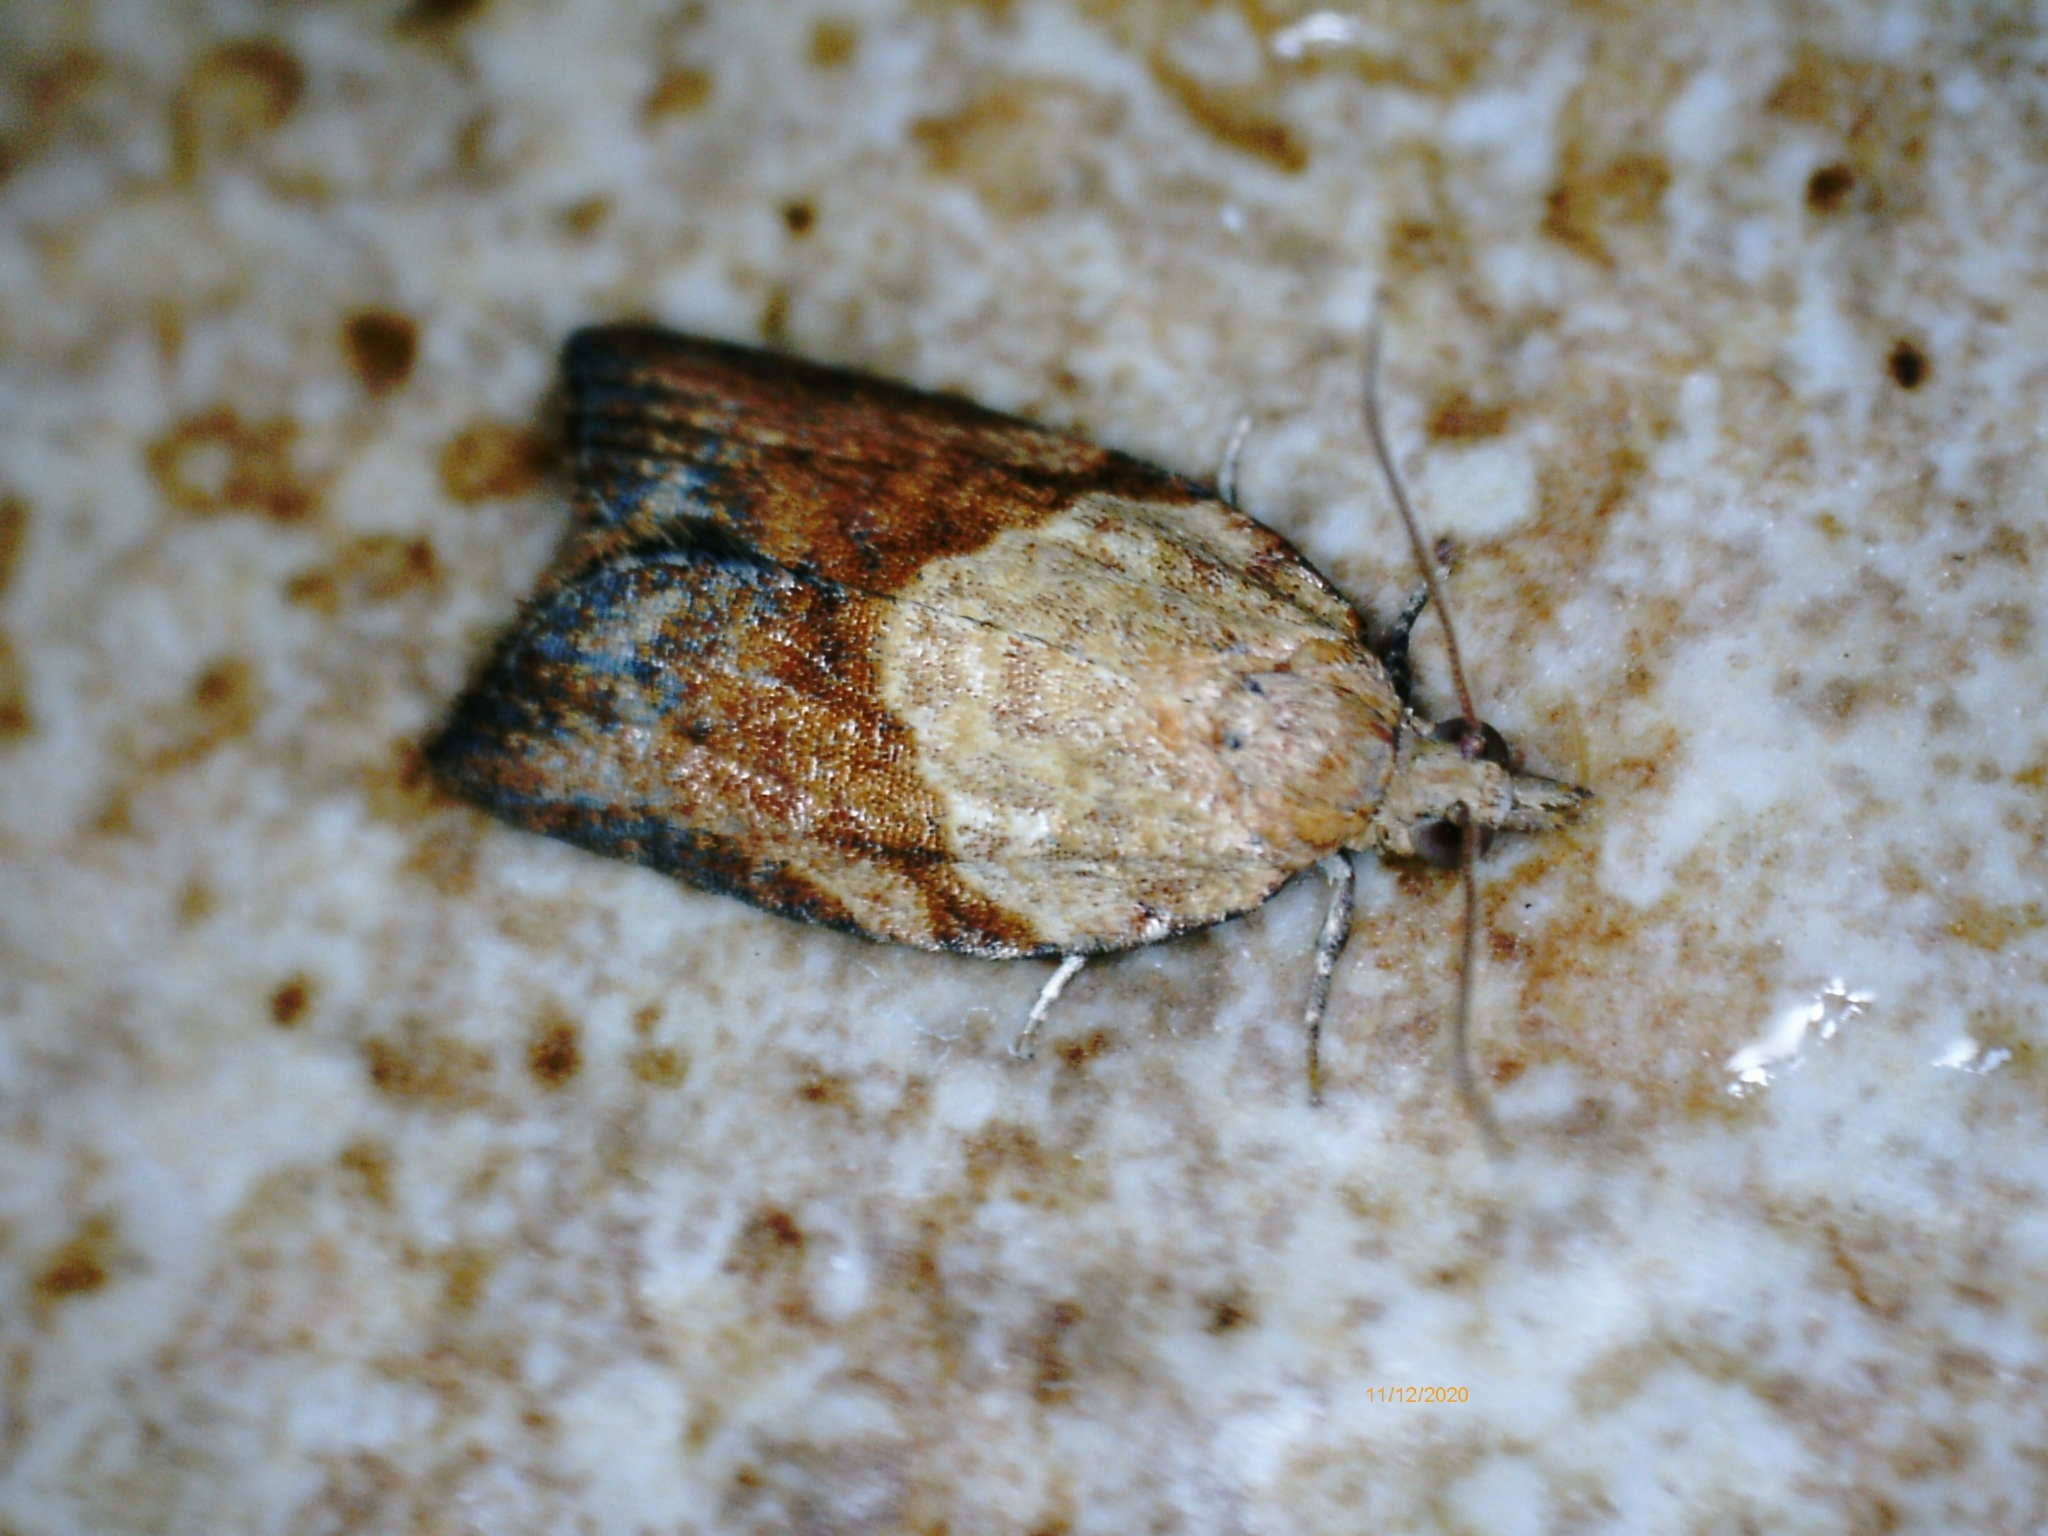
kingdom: Animalia
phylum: Arthropoda
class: Insecta
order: Lepidoptera
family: Tortricidae
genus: Epiphyas
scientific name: Epiphyas postvittana
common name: Light brown apple moth
